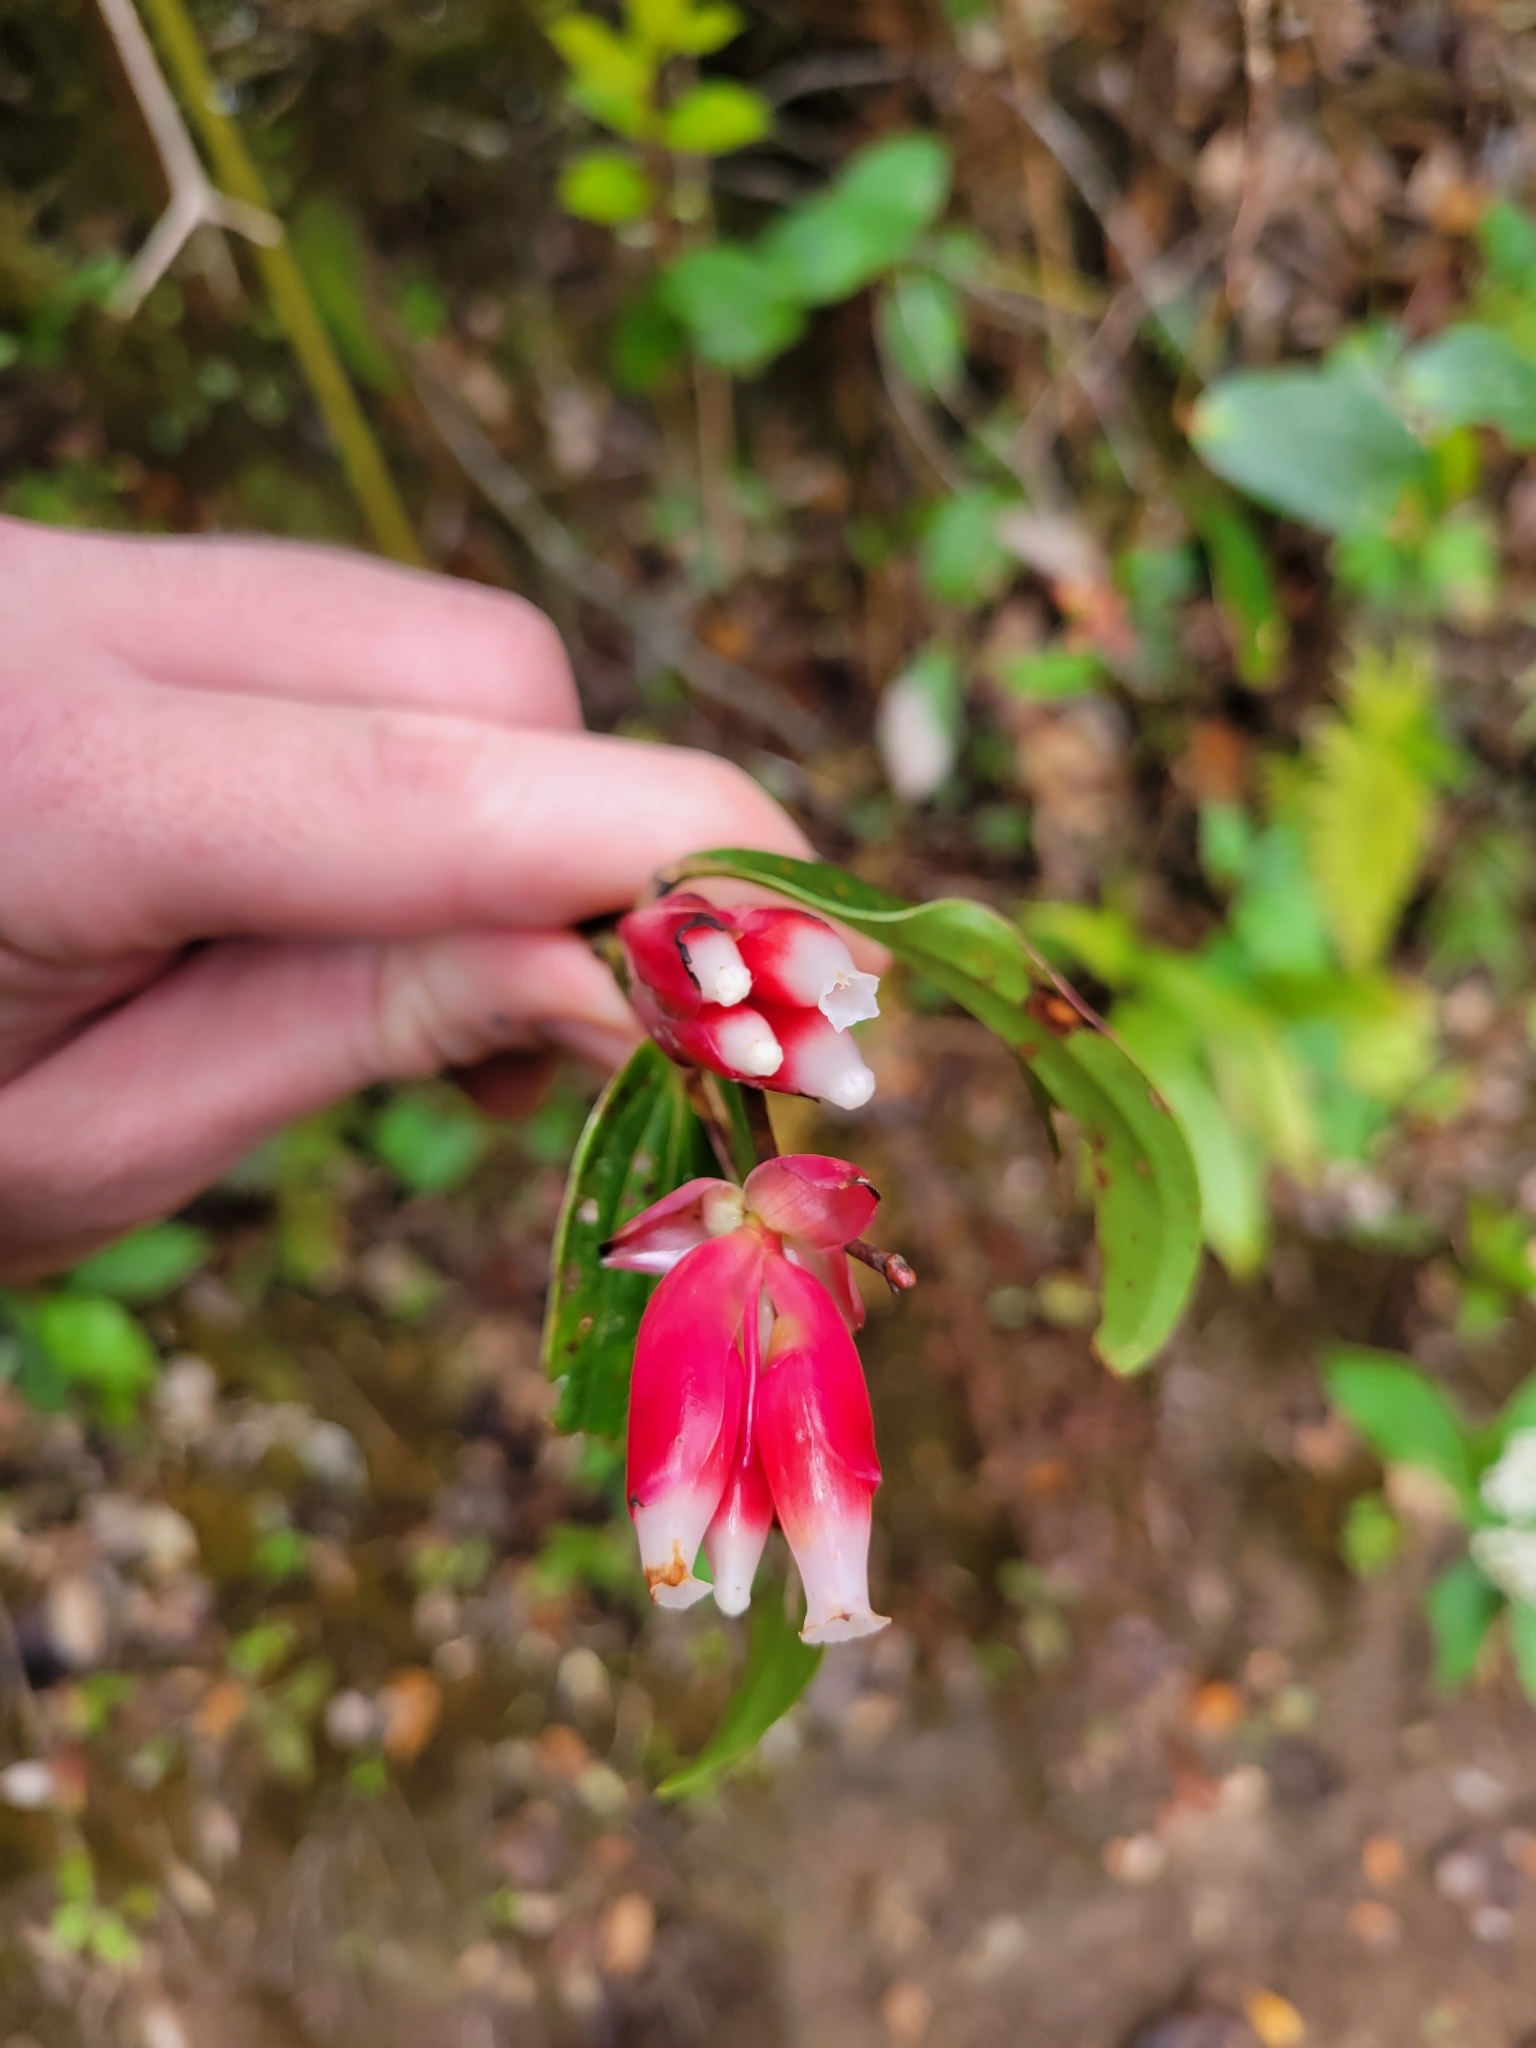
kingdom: Plantae
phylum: Tracheophyta
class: Magnoliopsida
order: Ericales
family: Ericaceae
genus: Cavendishia
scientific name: Cavendishia bracteata
